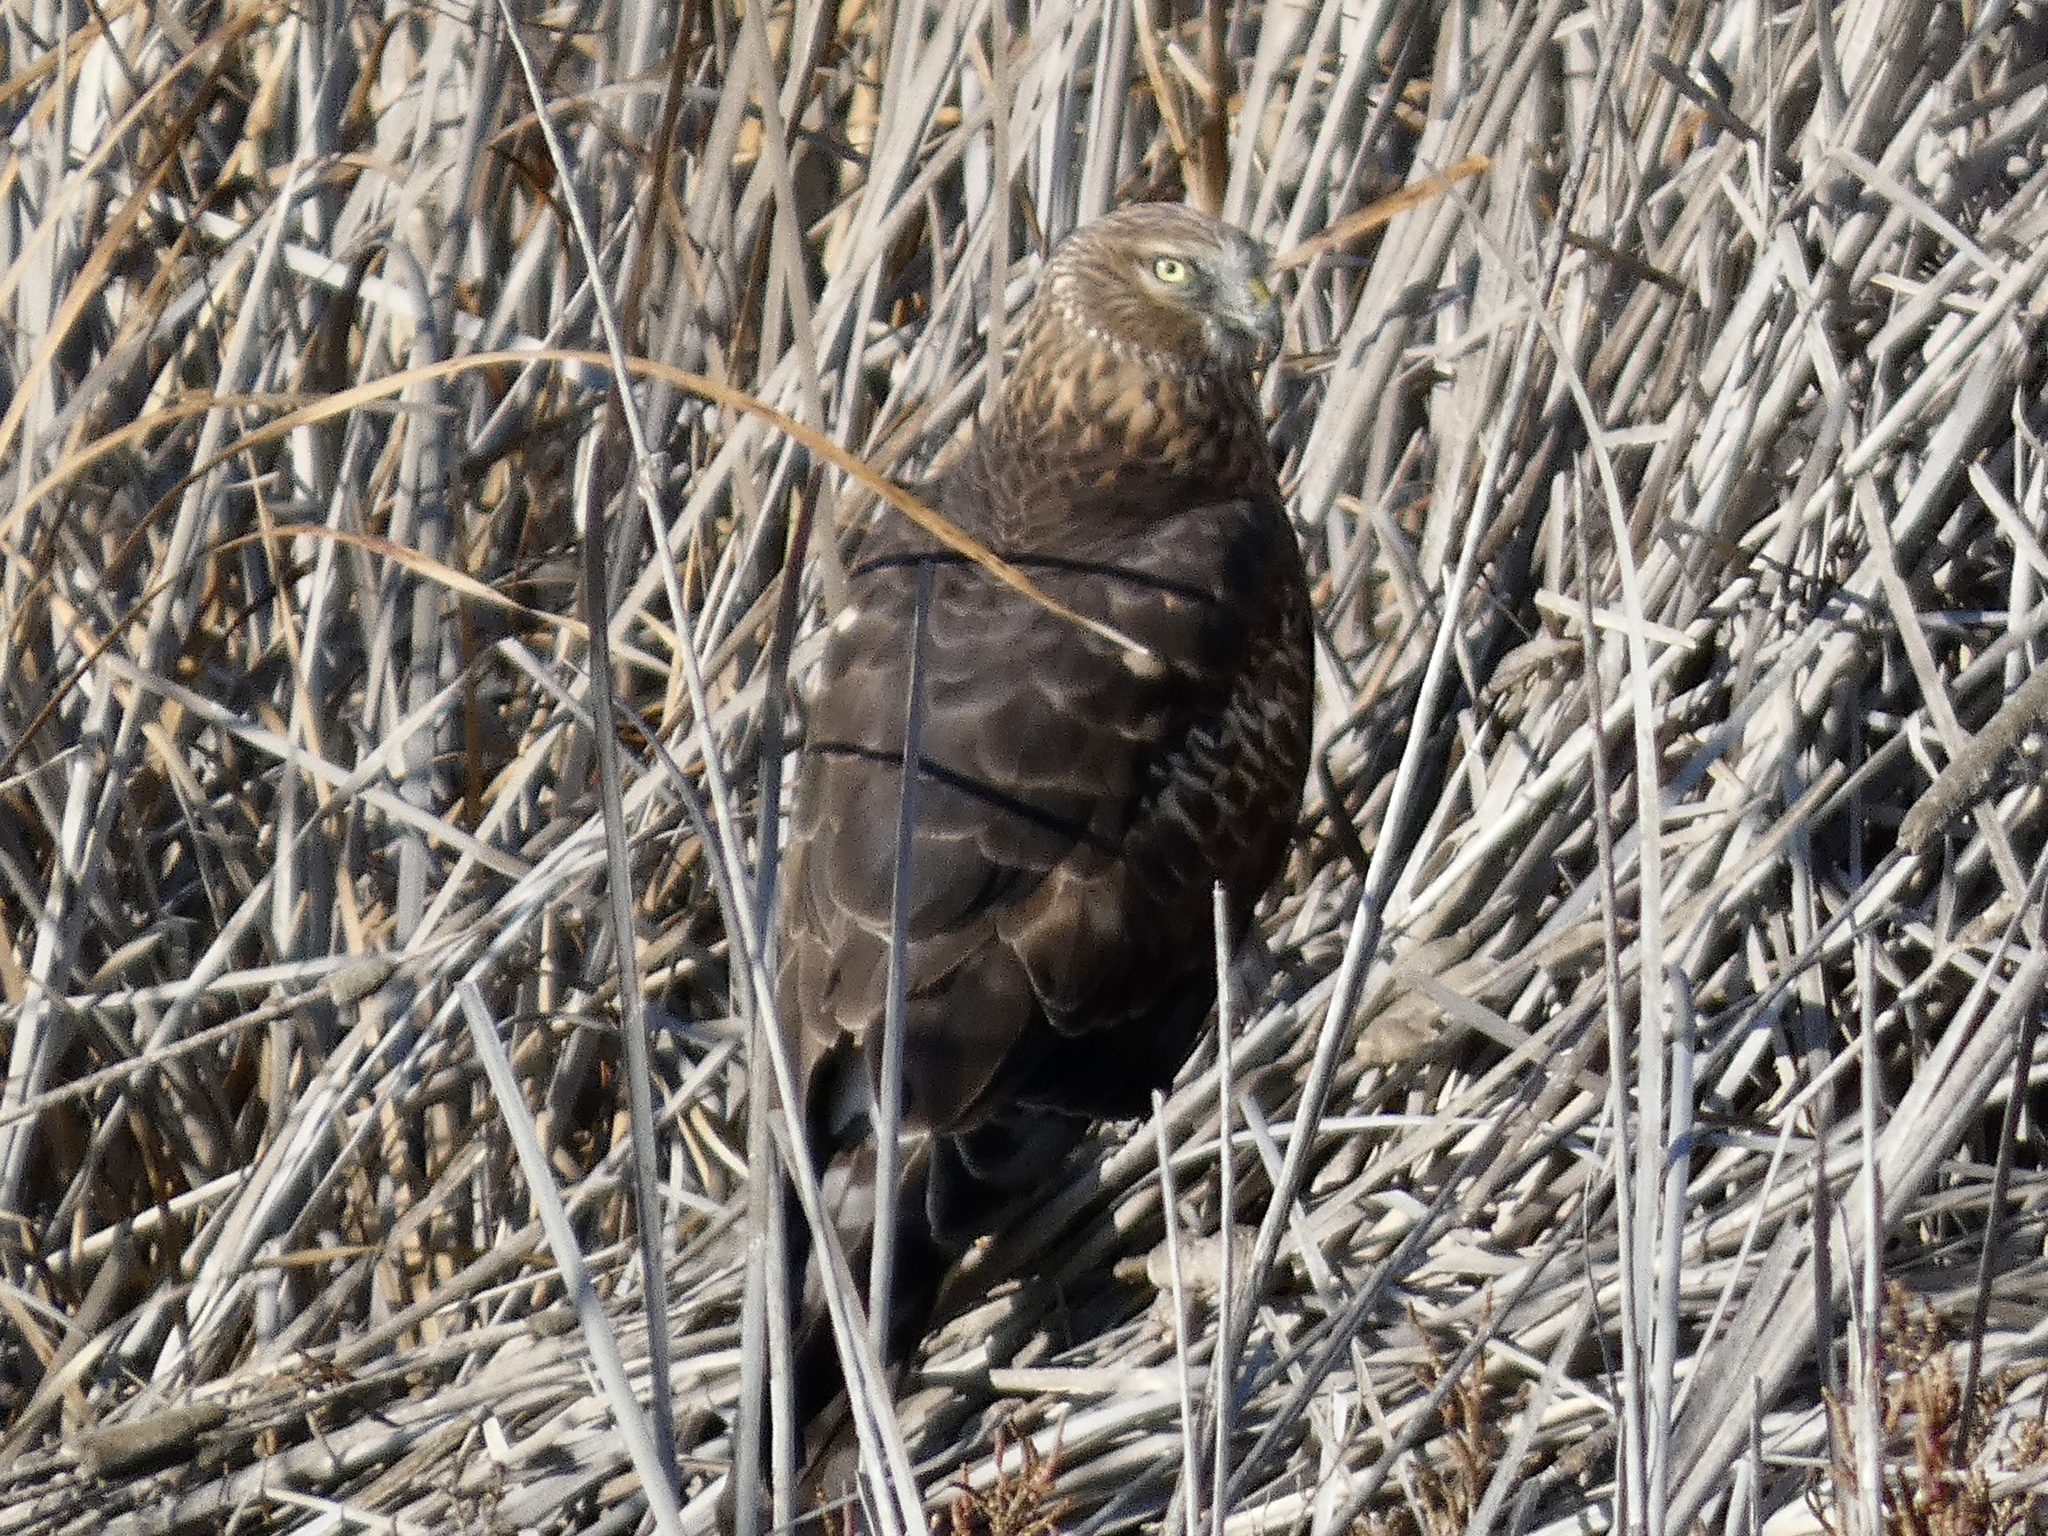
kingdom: Animalia
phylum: Chordata
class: Aves
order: Accipitriformes
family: Accipitridae
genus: Circus
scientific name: Circus cyaneus
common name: Hen harrier
